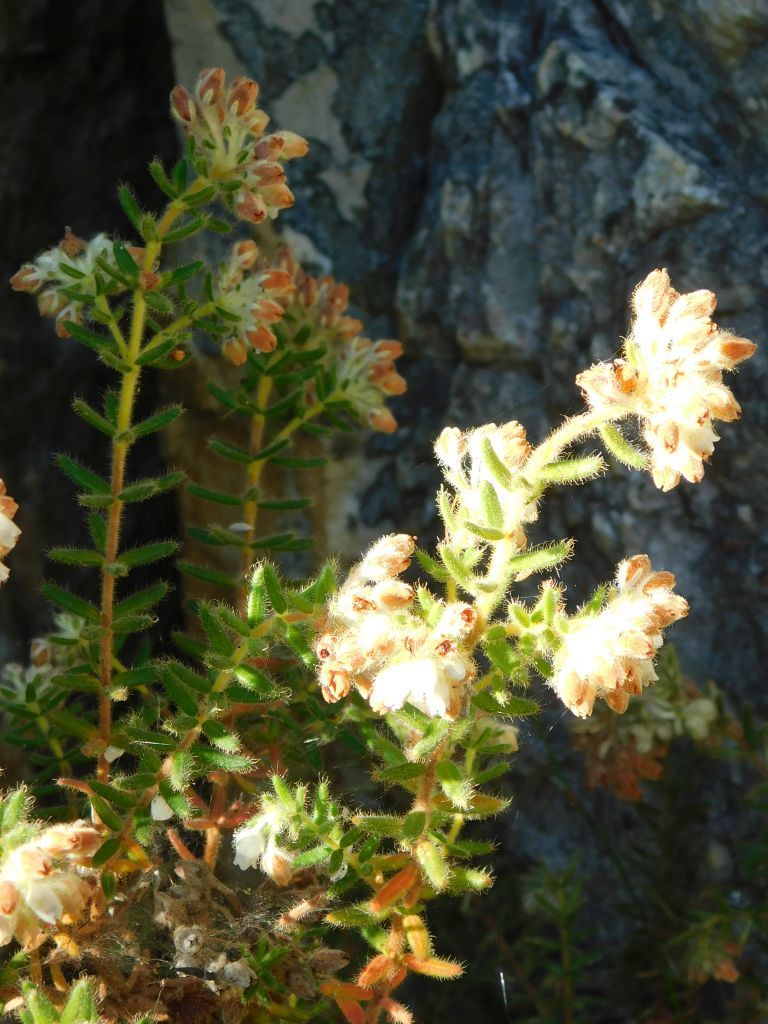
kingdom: Plantae
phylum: Tracheophyta
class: Magnoliopsida
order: Ericales
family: Ericaceae
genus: Erica
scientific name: Erica pannosa
